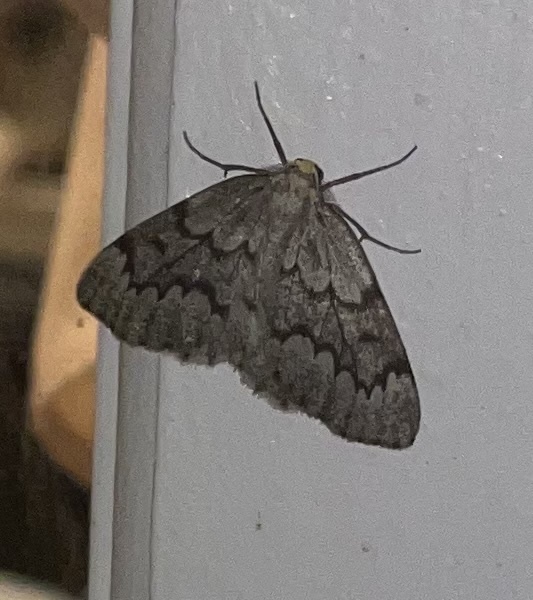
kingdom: Animalia
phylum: Arthropoda
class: Insecta
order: Lepidoptera
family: Geometridae
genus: Nepytia
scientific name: Nepytia canosaria
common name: False hemlock looper
